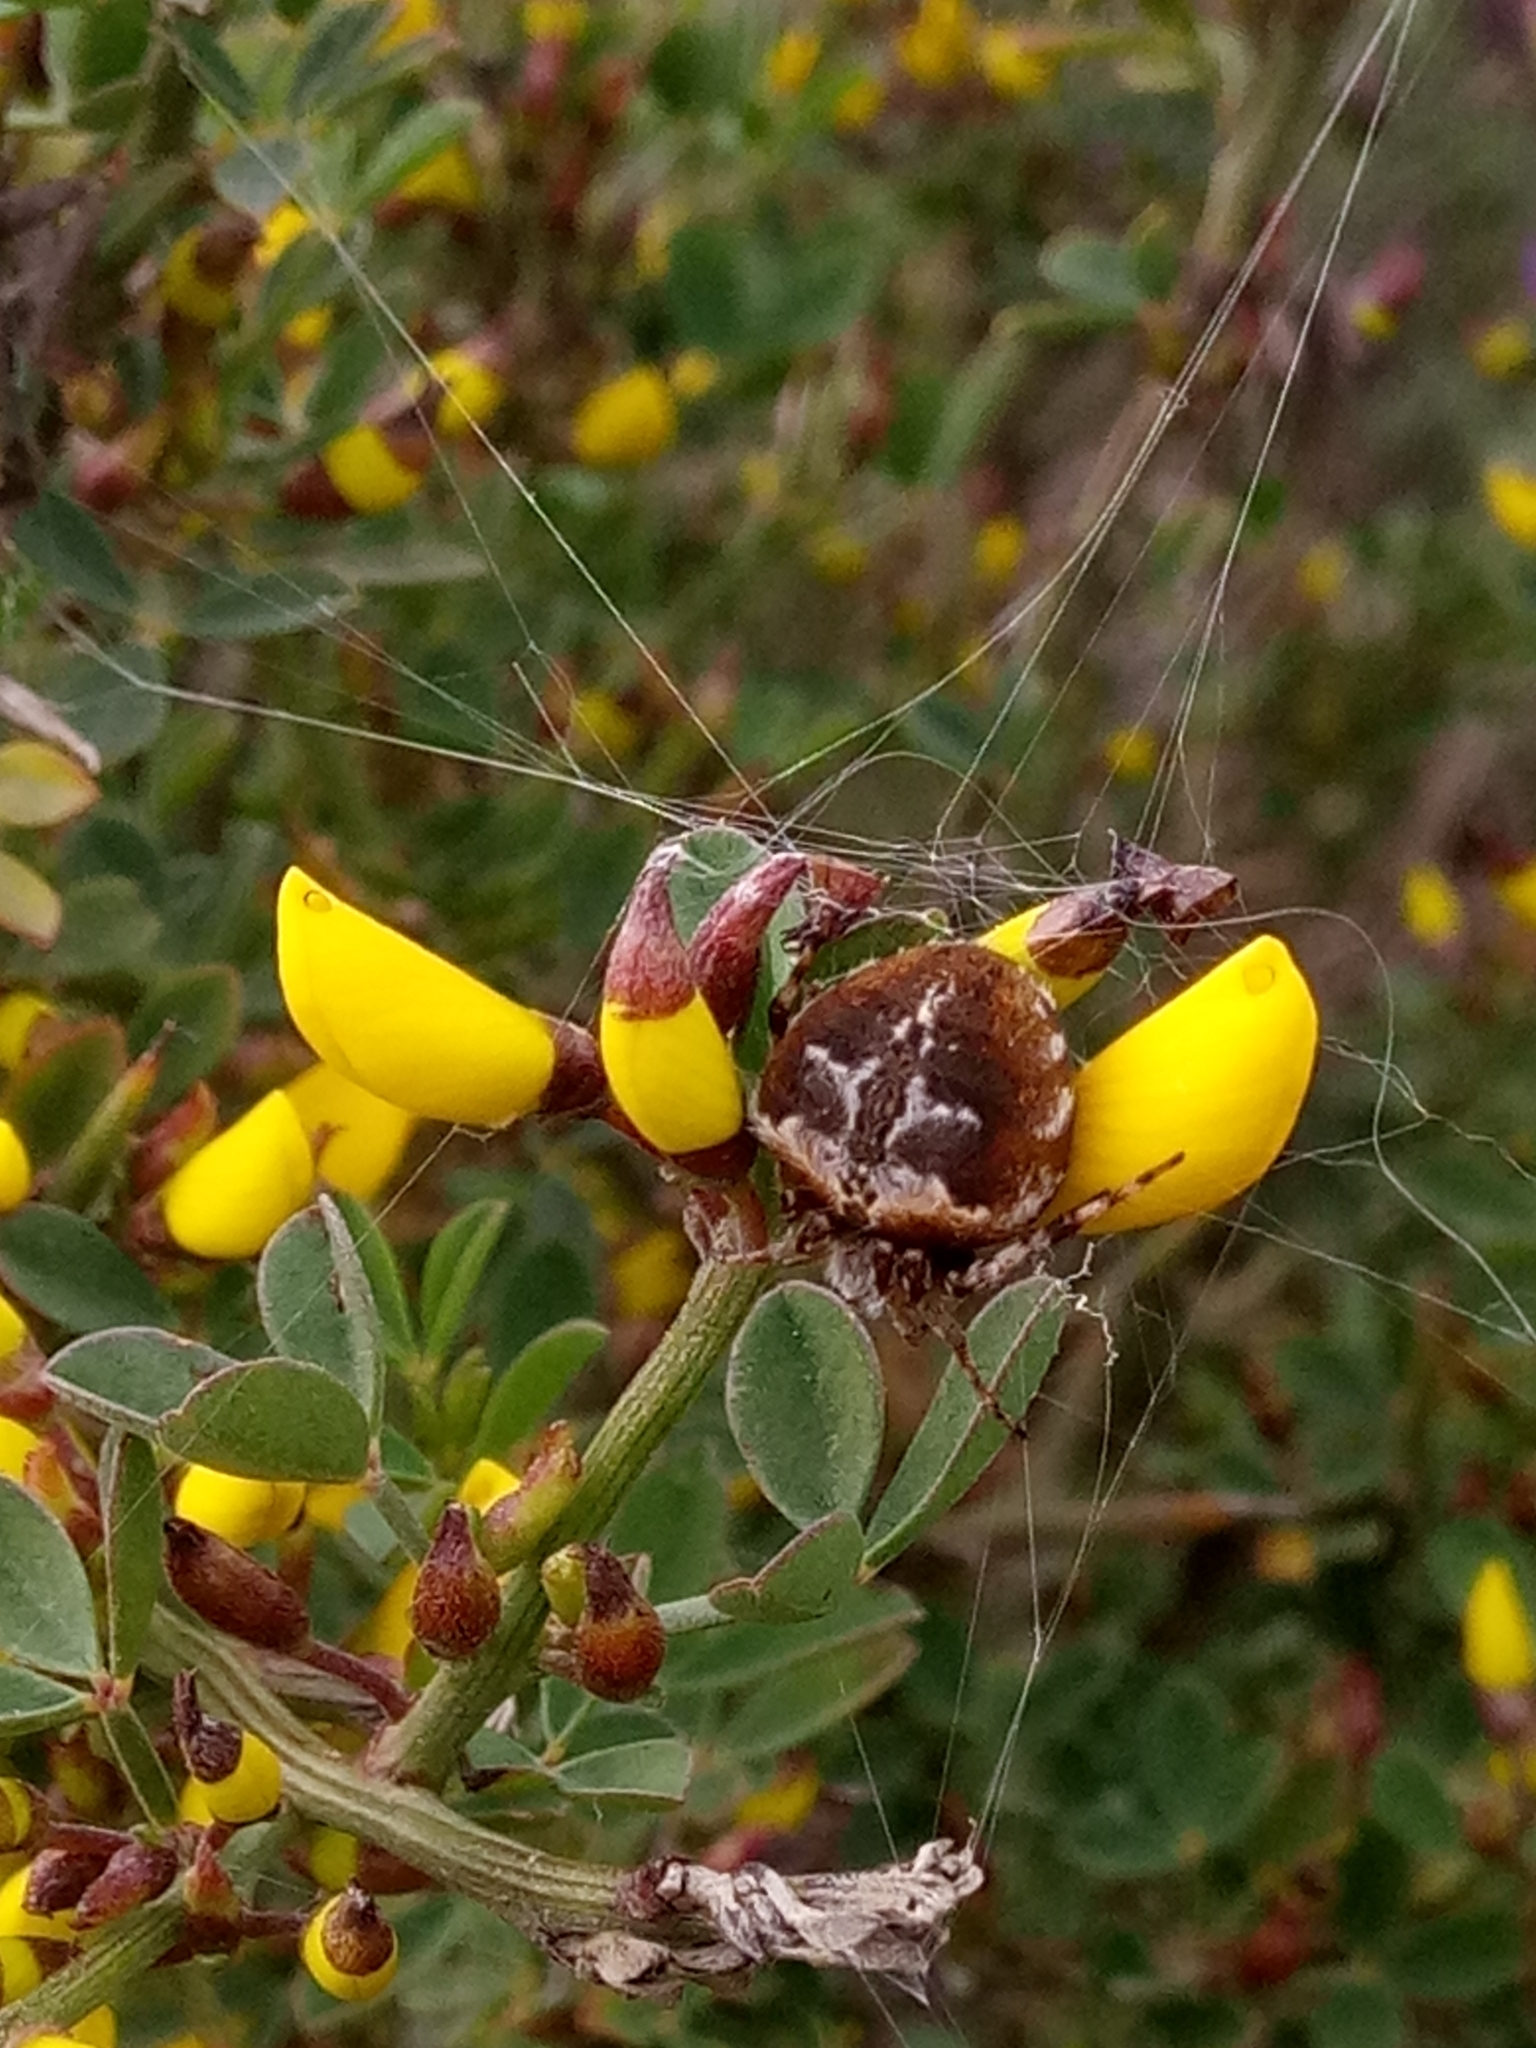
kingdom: Animalia
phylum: Arthropoda
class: Arachnida
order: Araneae
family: Araneidae
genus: Agalenatea
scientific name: Agalenatea redii
